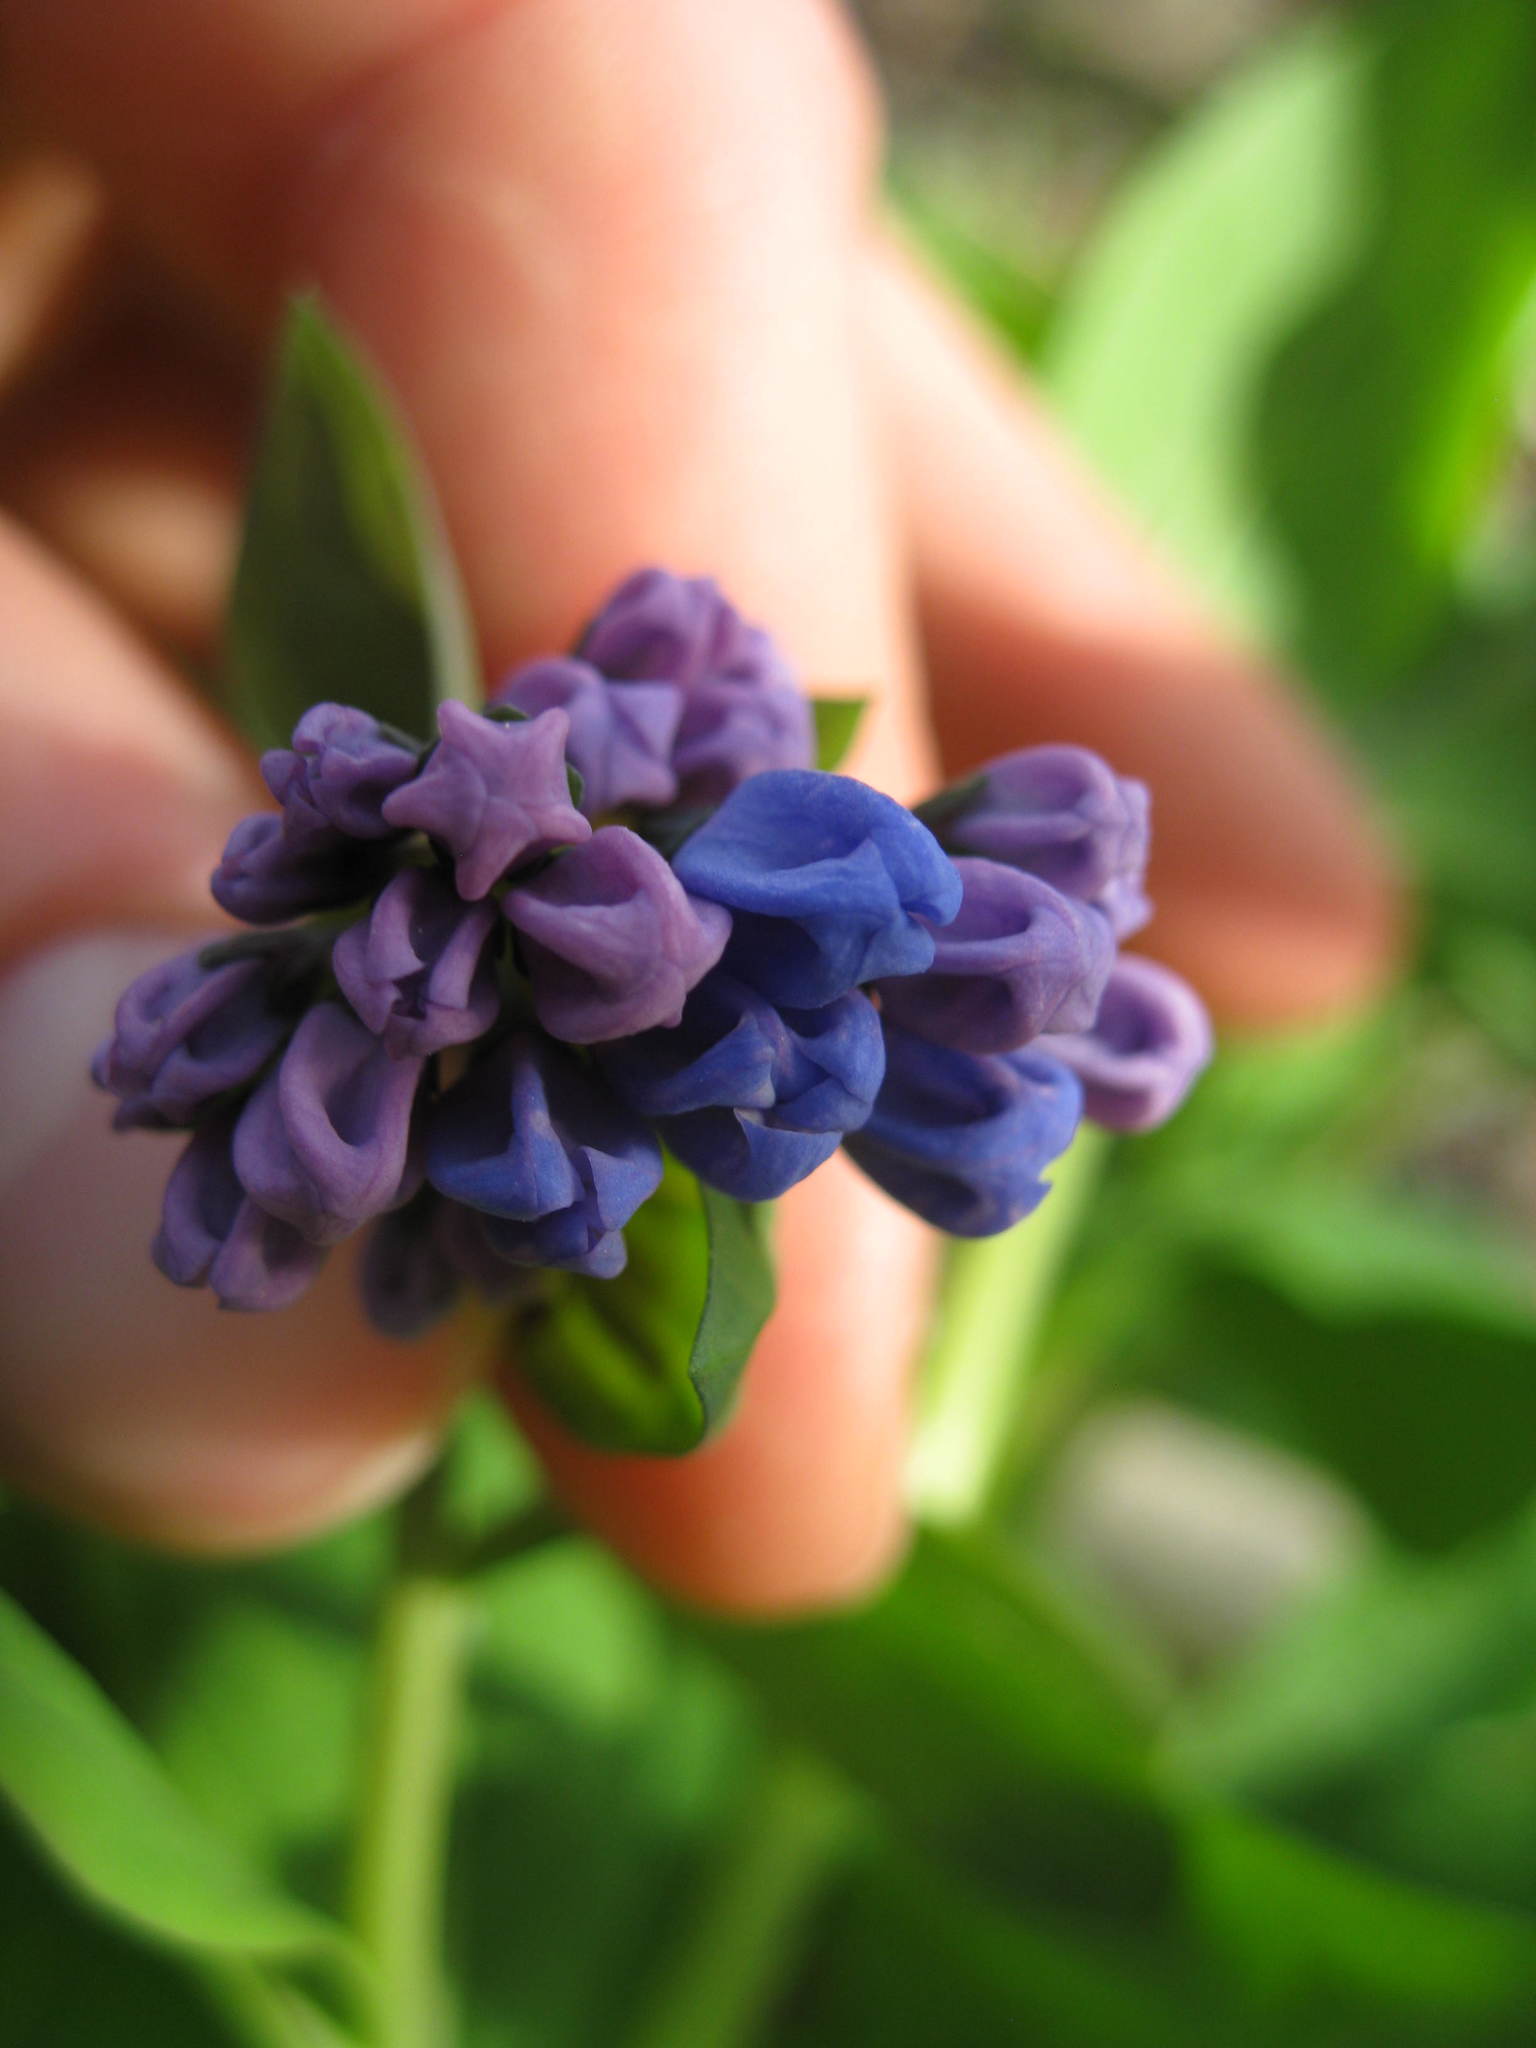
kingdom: Plantae
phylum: Tracheophyta
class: Magnoliopsida
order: Boraginales
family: Boraginaceae
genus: Mertensia
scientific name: Mertensia virginica
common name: Virginia bluebells
